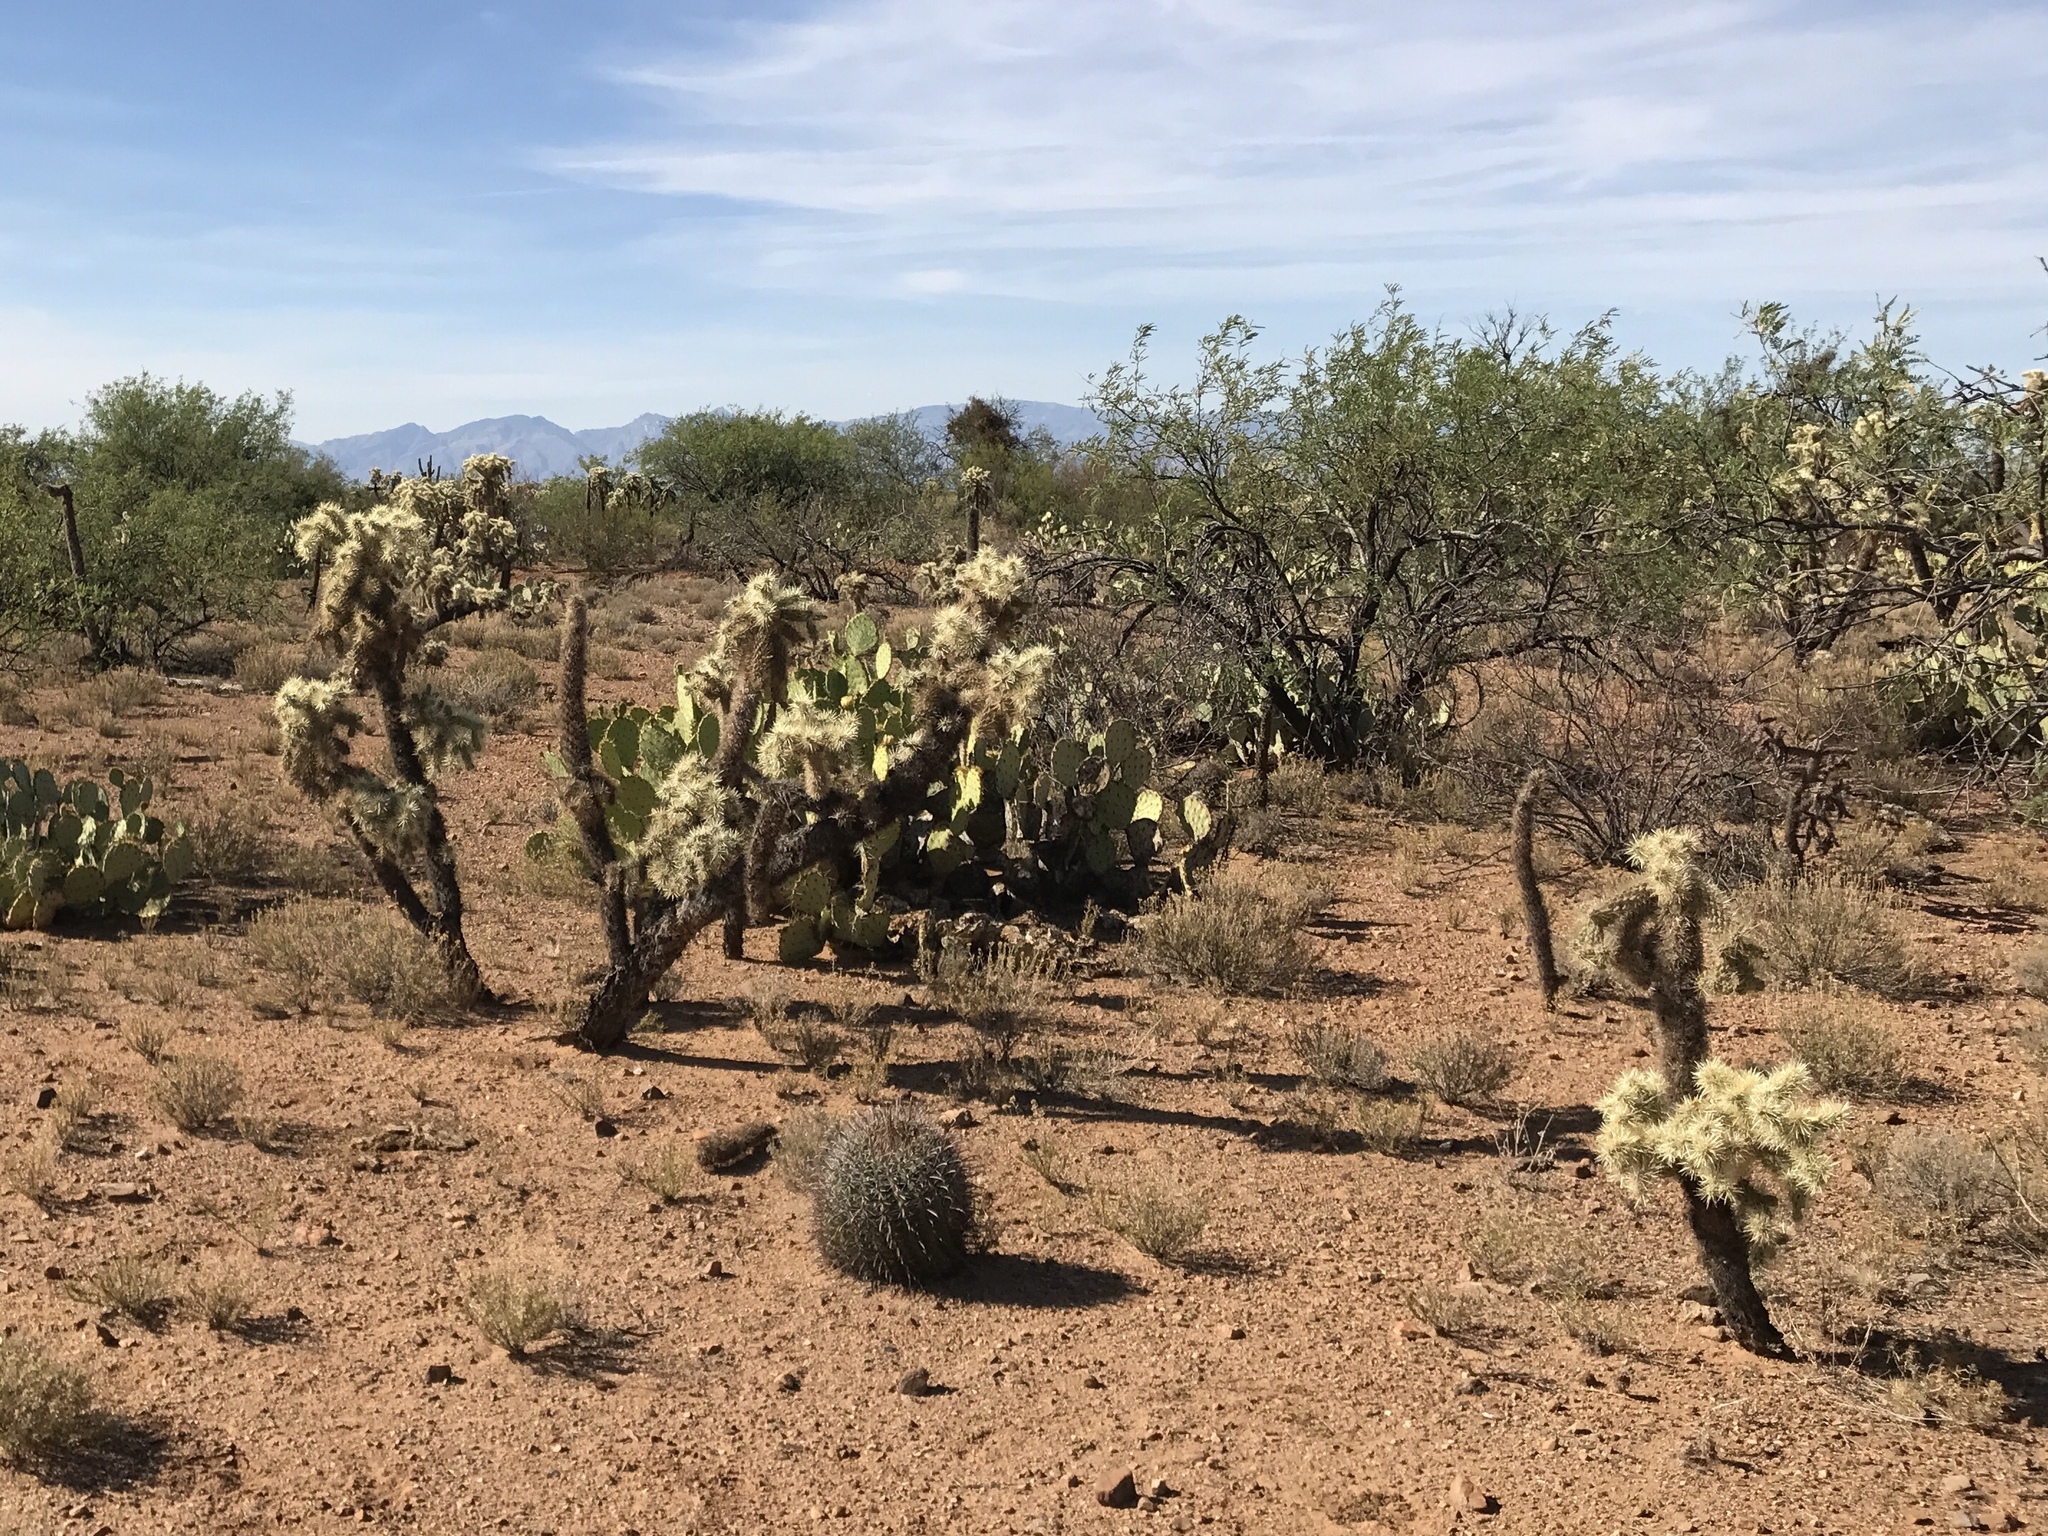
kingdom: Plantae
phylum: Tracheophyta
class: Magnoliopsida
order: Caryophyllales
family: Cactaceae
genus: Cylindropuntia
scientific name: Cylindropuntia fulgida
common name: Jumping cholla
